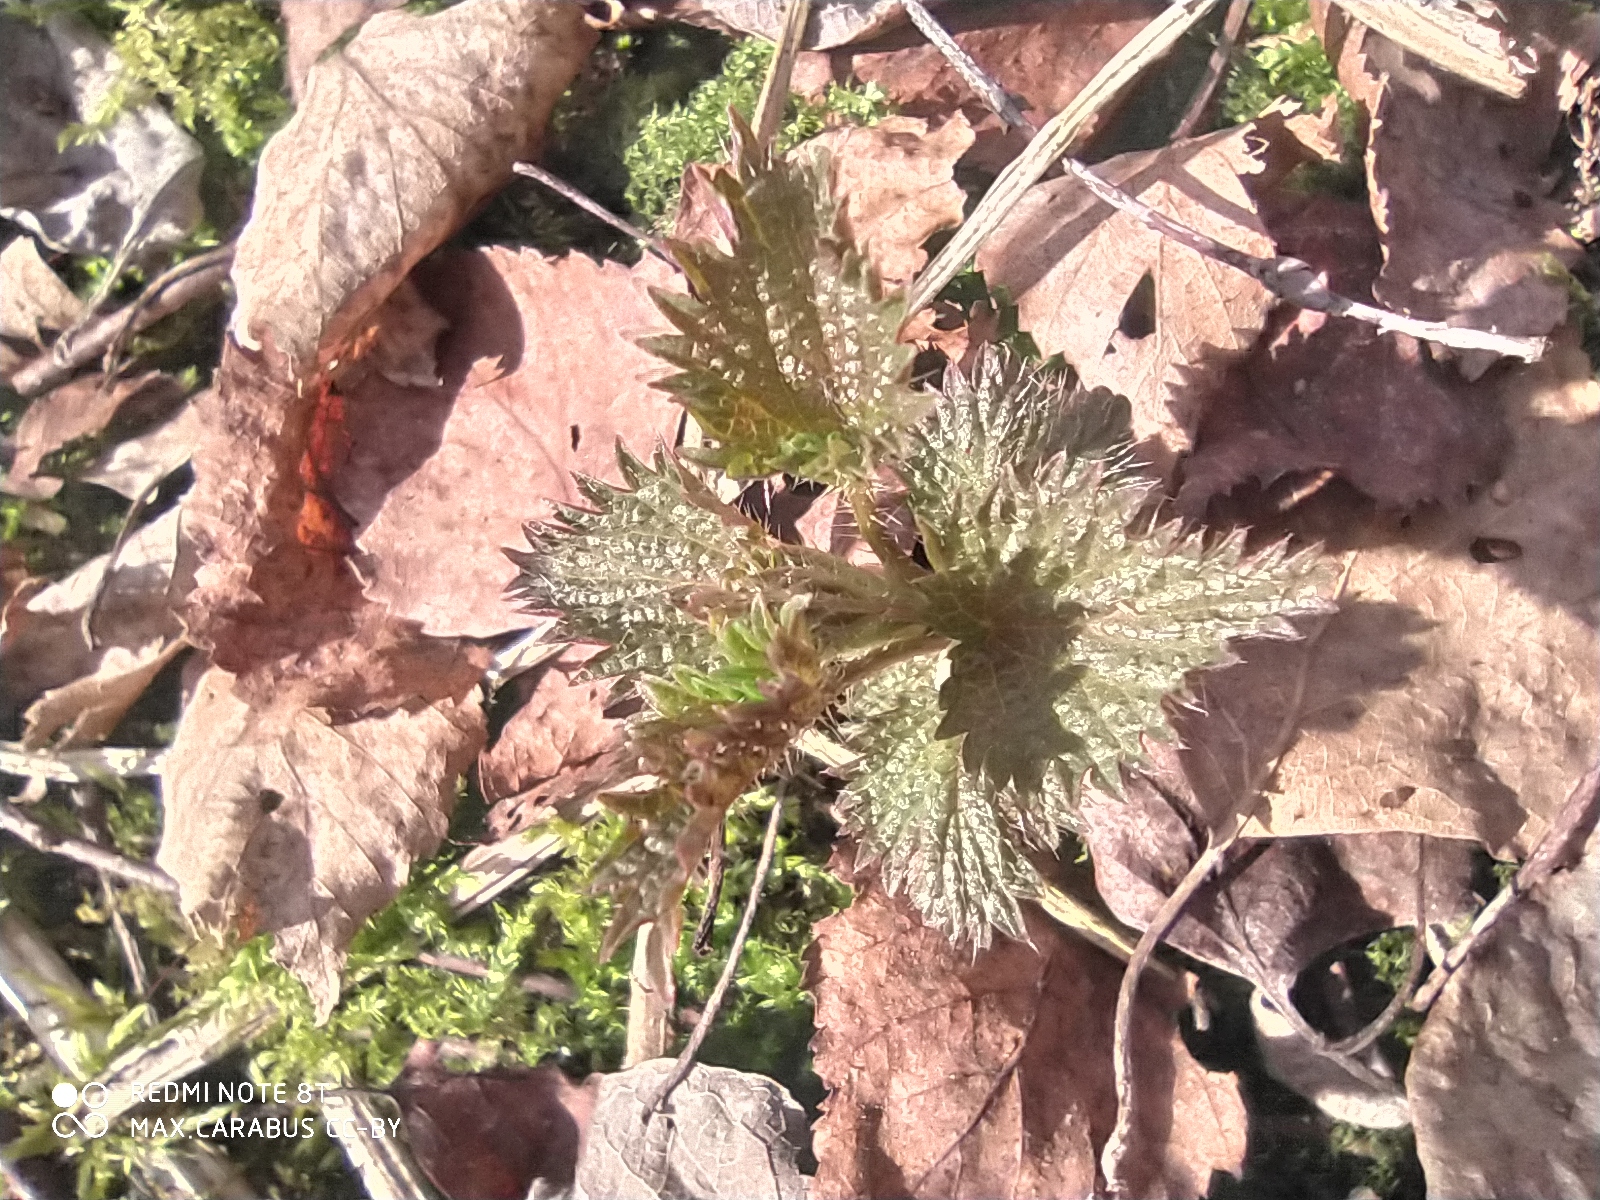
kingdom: Plantae
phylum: Tracheophyta
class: Magnoliopsida
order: Rosales
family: Urticaceae
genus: Urtica
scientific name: Urtica dioica
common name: Common nettle
